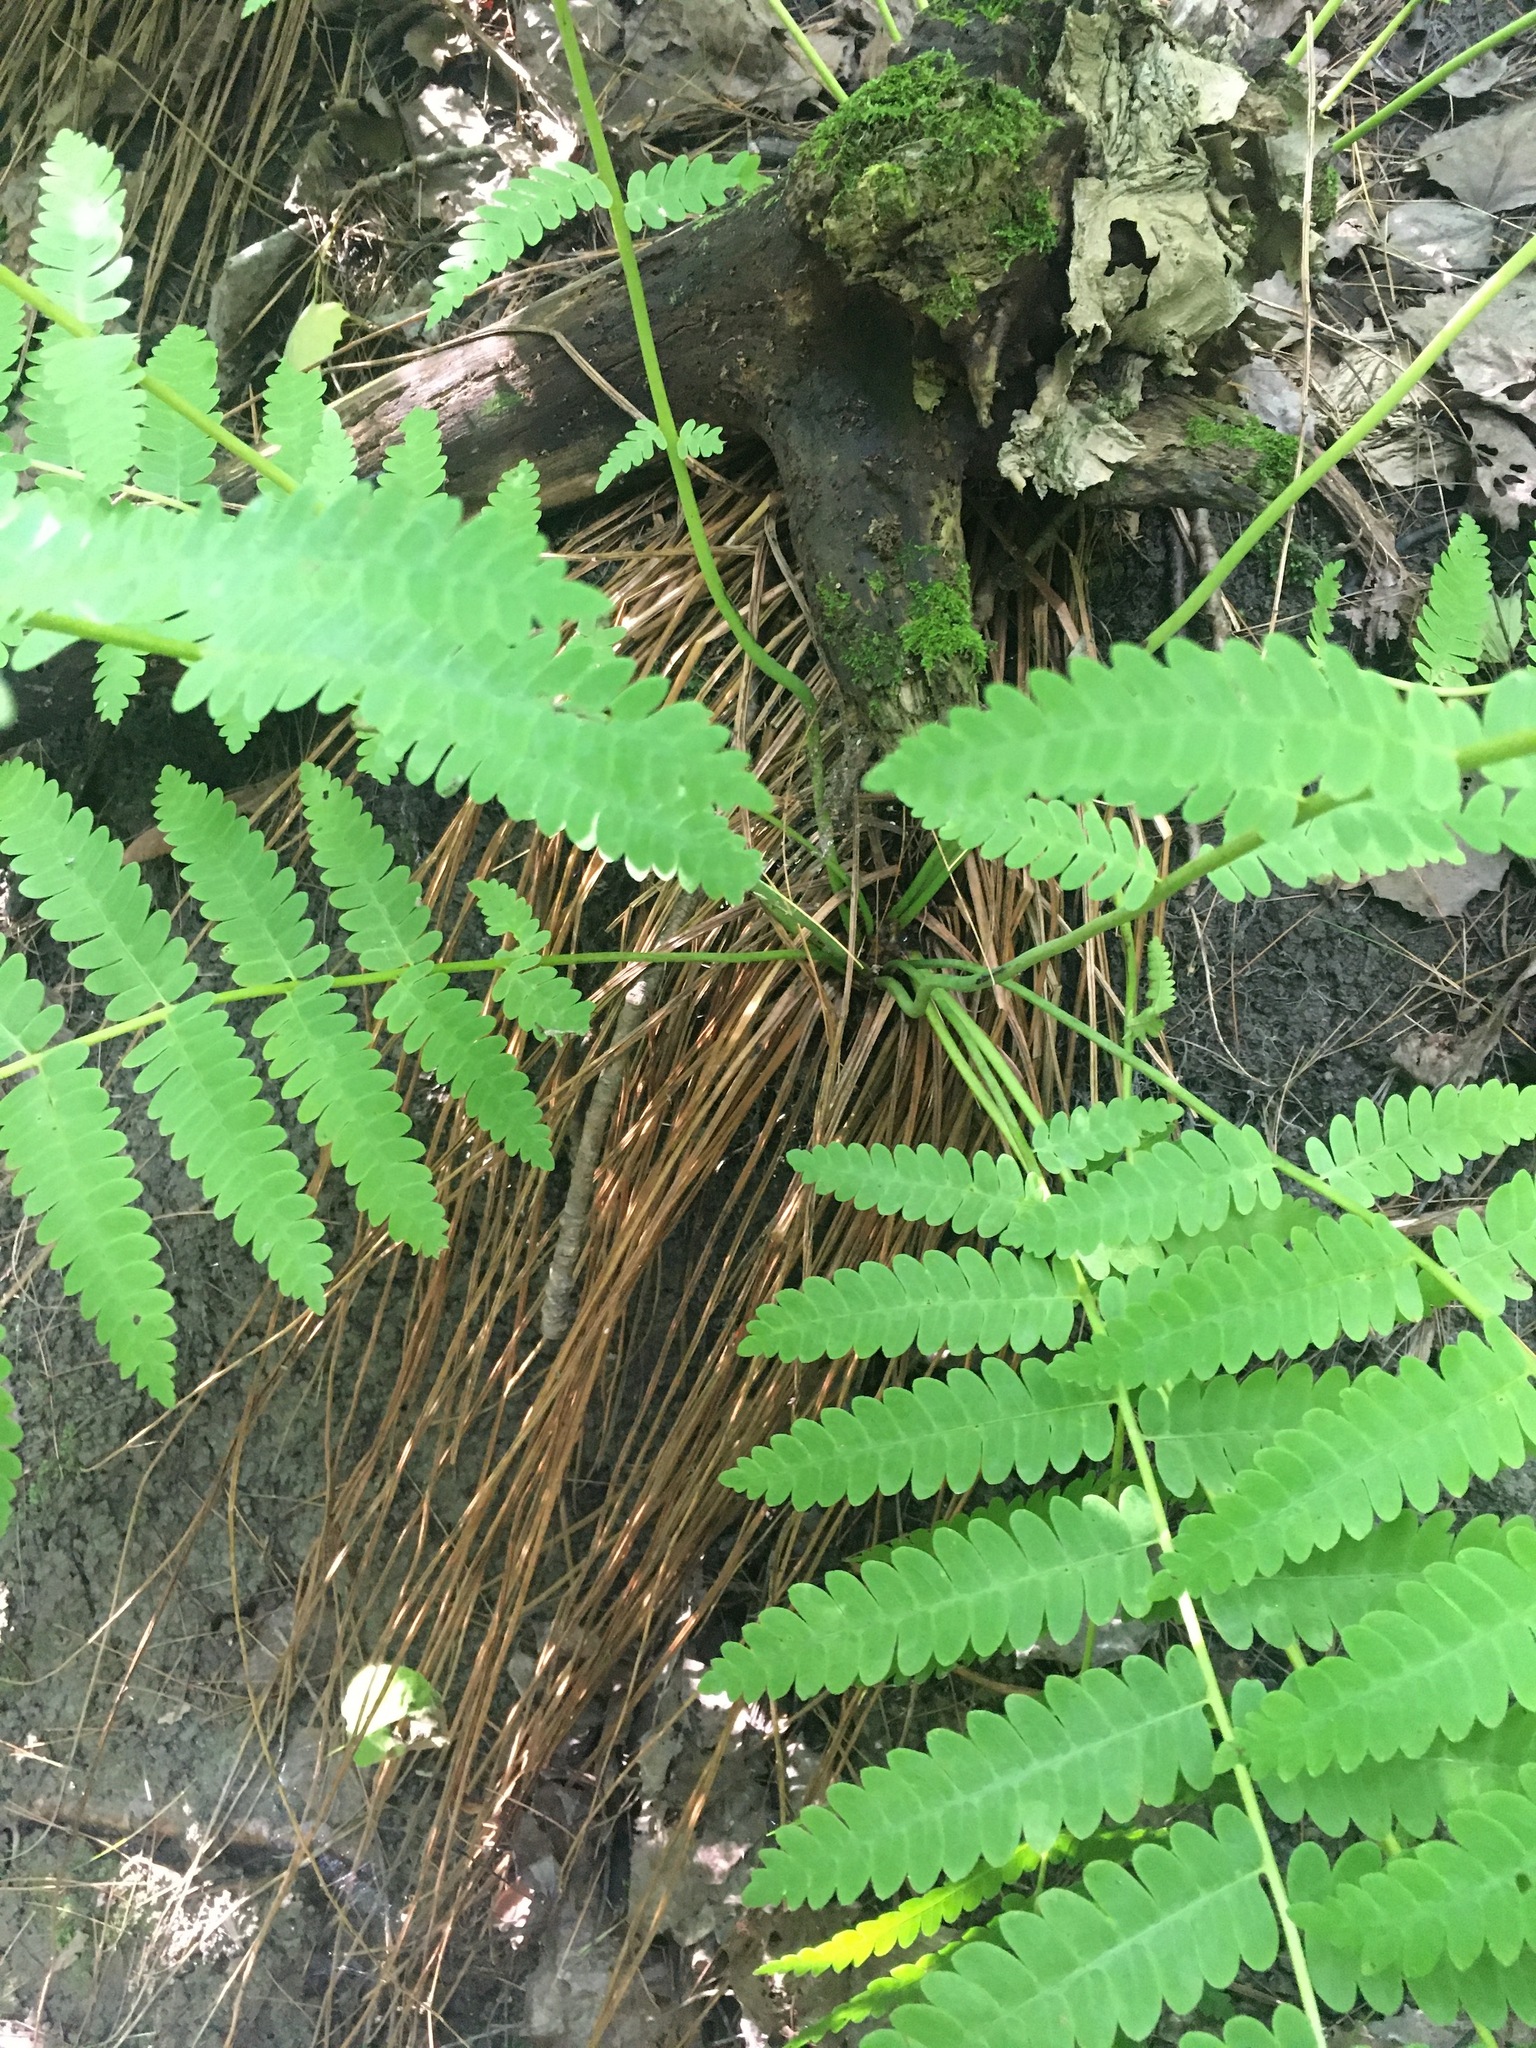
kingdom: Plantae
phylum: Tracheophyta
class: Polypodiopsida
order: Osmundales
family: Osmundaceae
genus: Claytosmunda
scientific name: Claytosmunda claytoniana
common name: Clayton's fern
